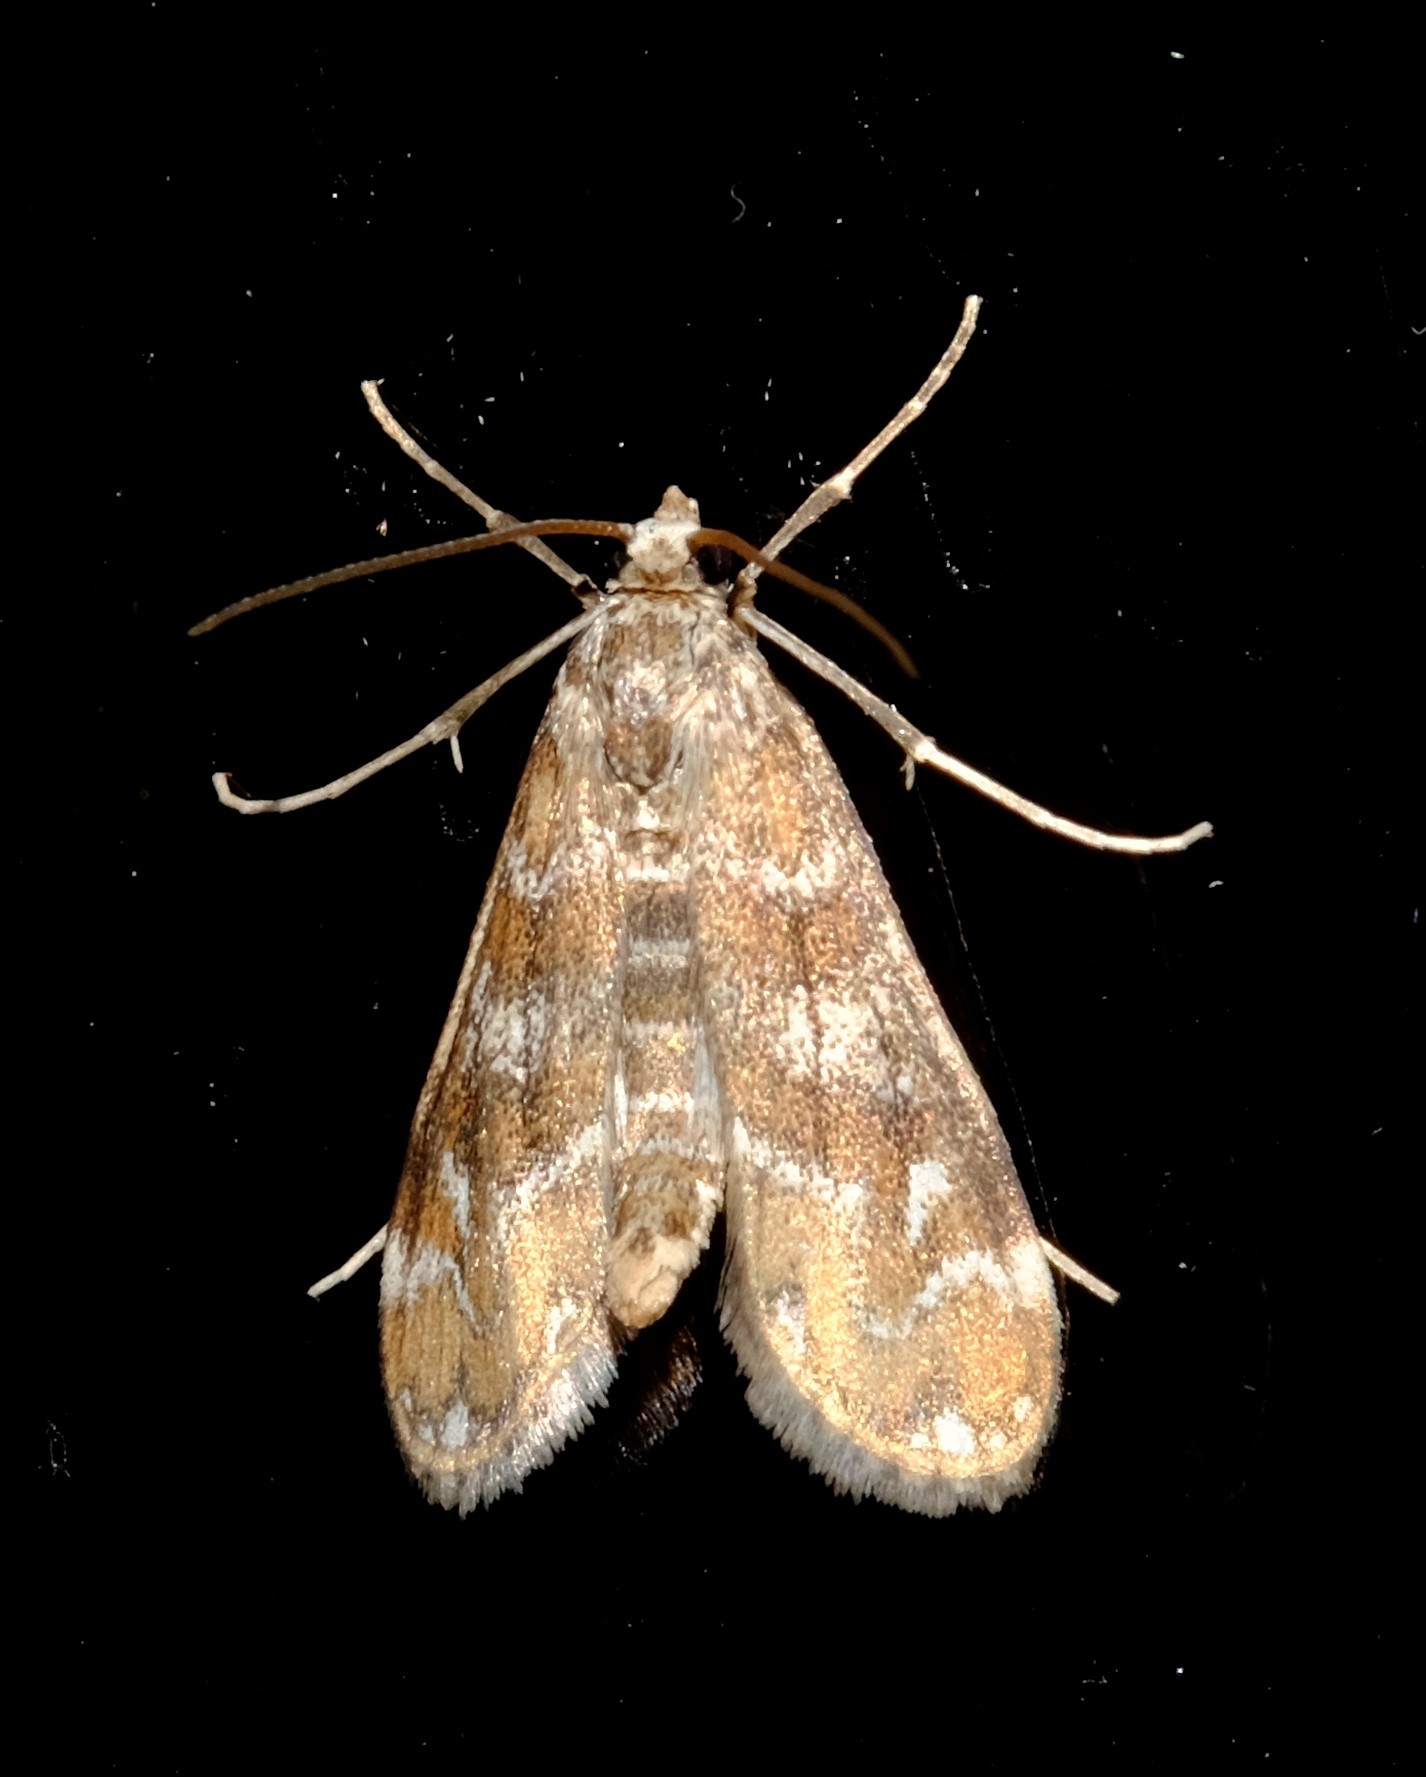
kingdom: Animalia
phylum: Arthropoda
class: Insecta
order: Lepidoptera
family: Crambidae
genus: Hygraula
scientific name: Hygraula nitens
